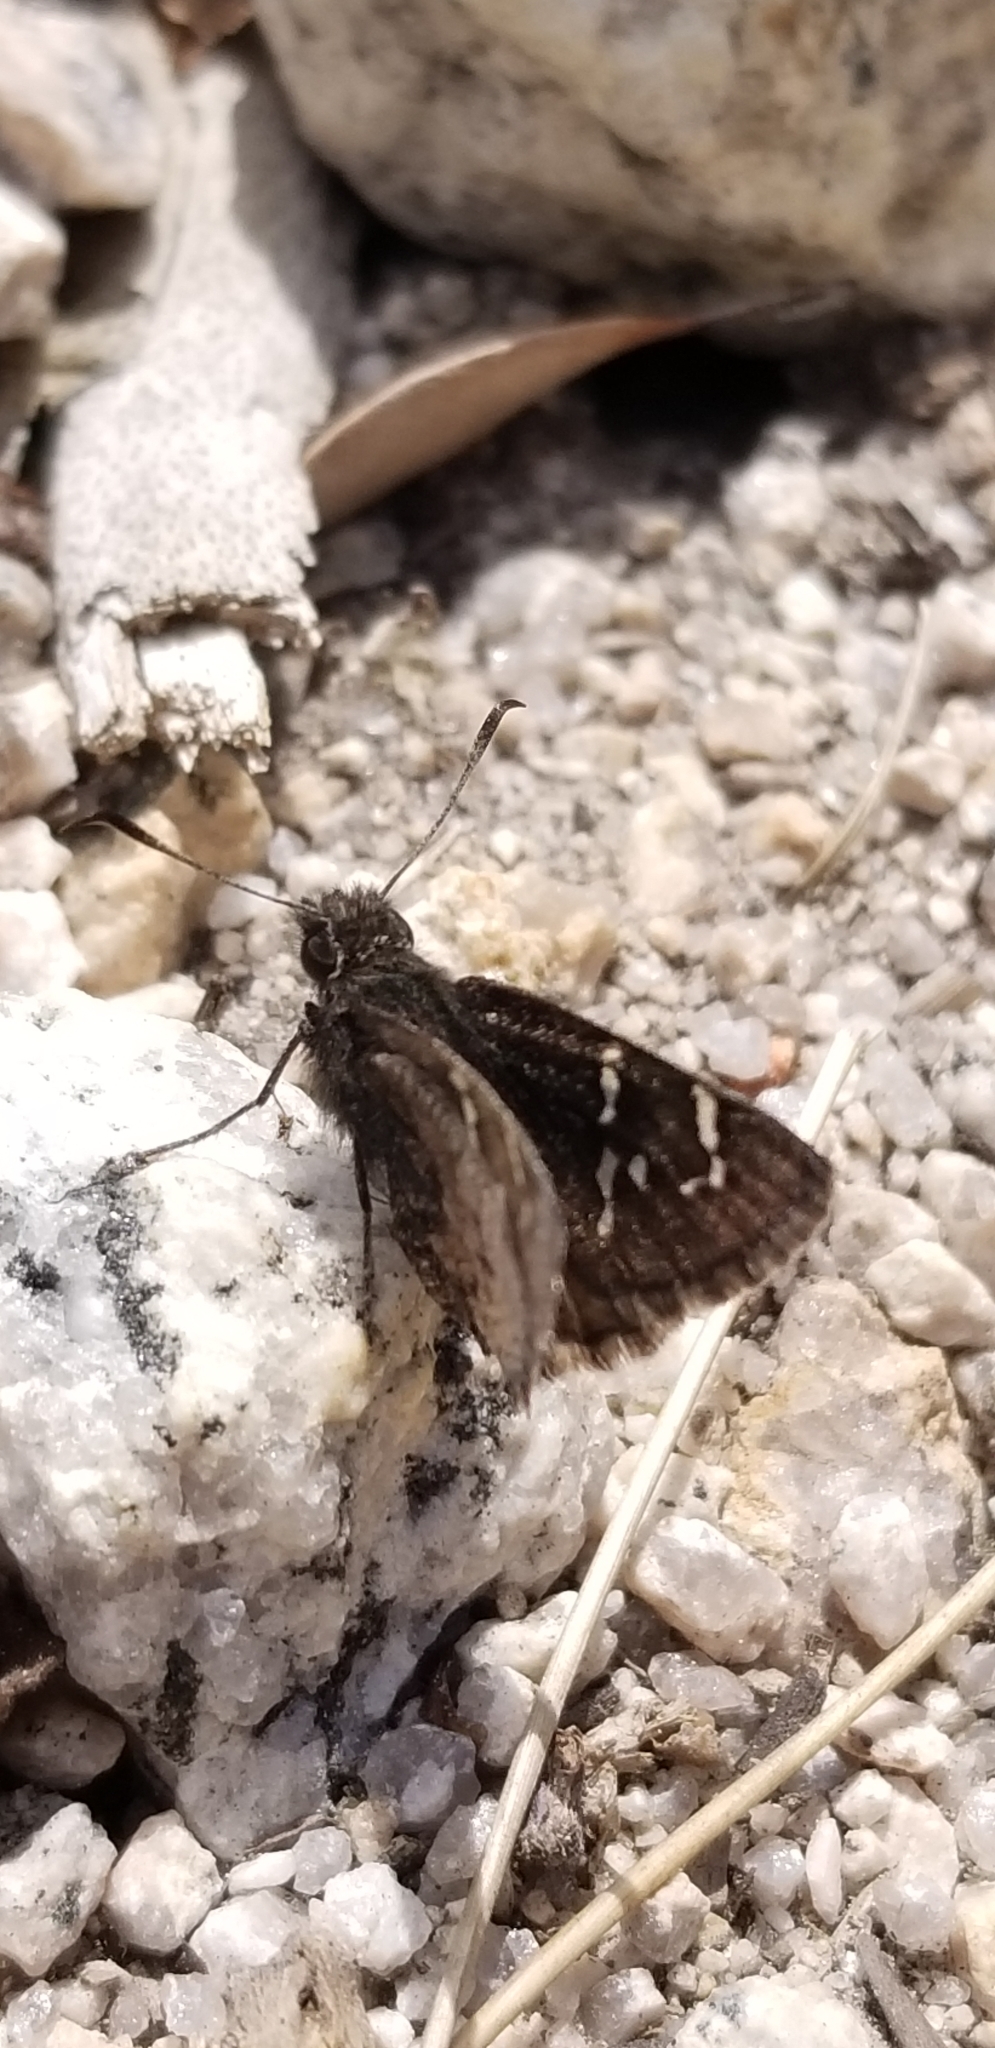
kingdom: Animalia
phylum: Arthropoda
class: Insecta
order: Lepidoptera
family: Hesperiidae
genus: Thorybes
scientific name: Thorybes mexicana
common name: Mexican cloudywing
